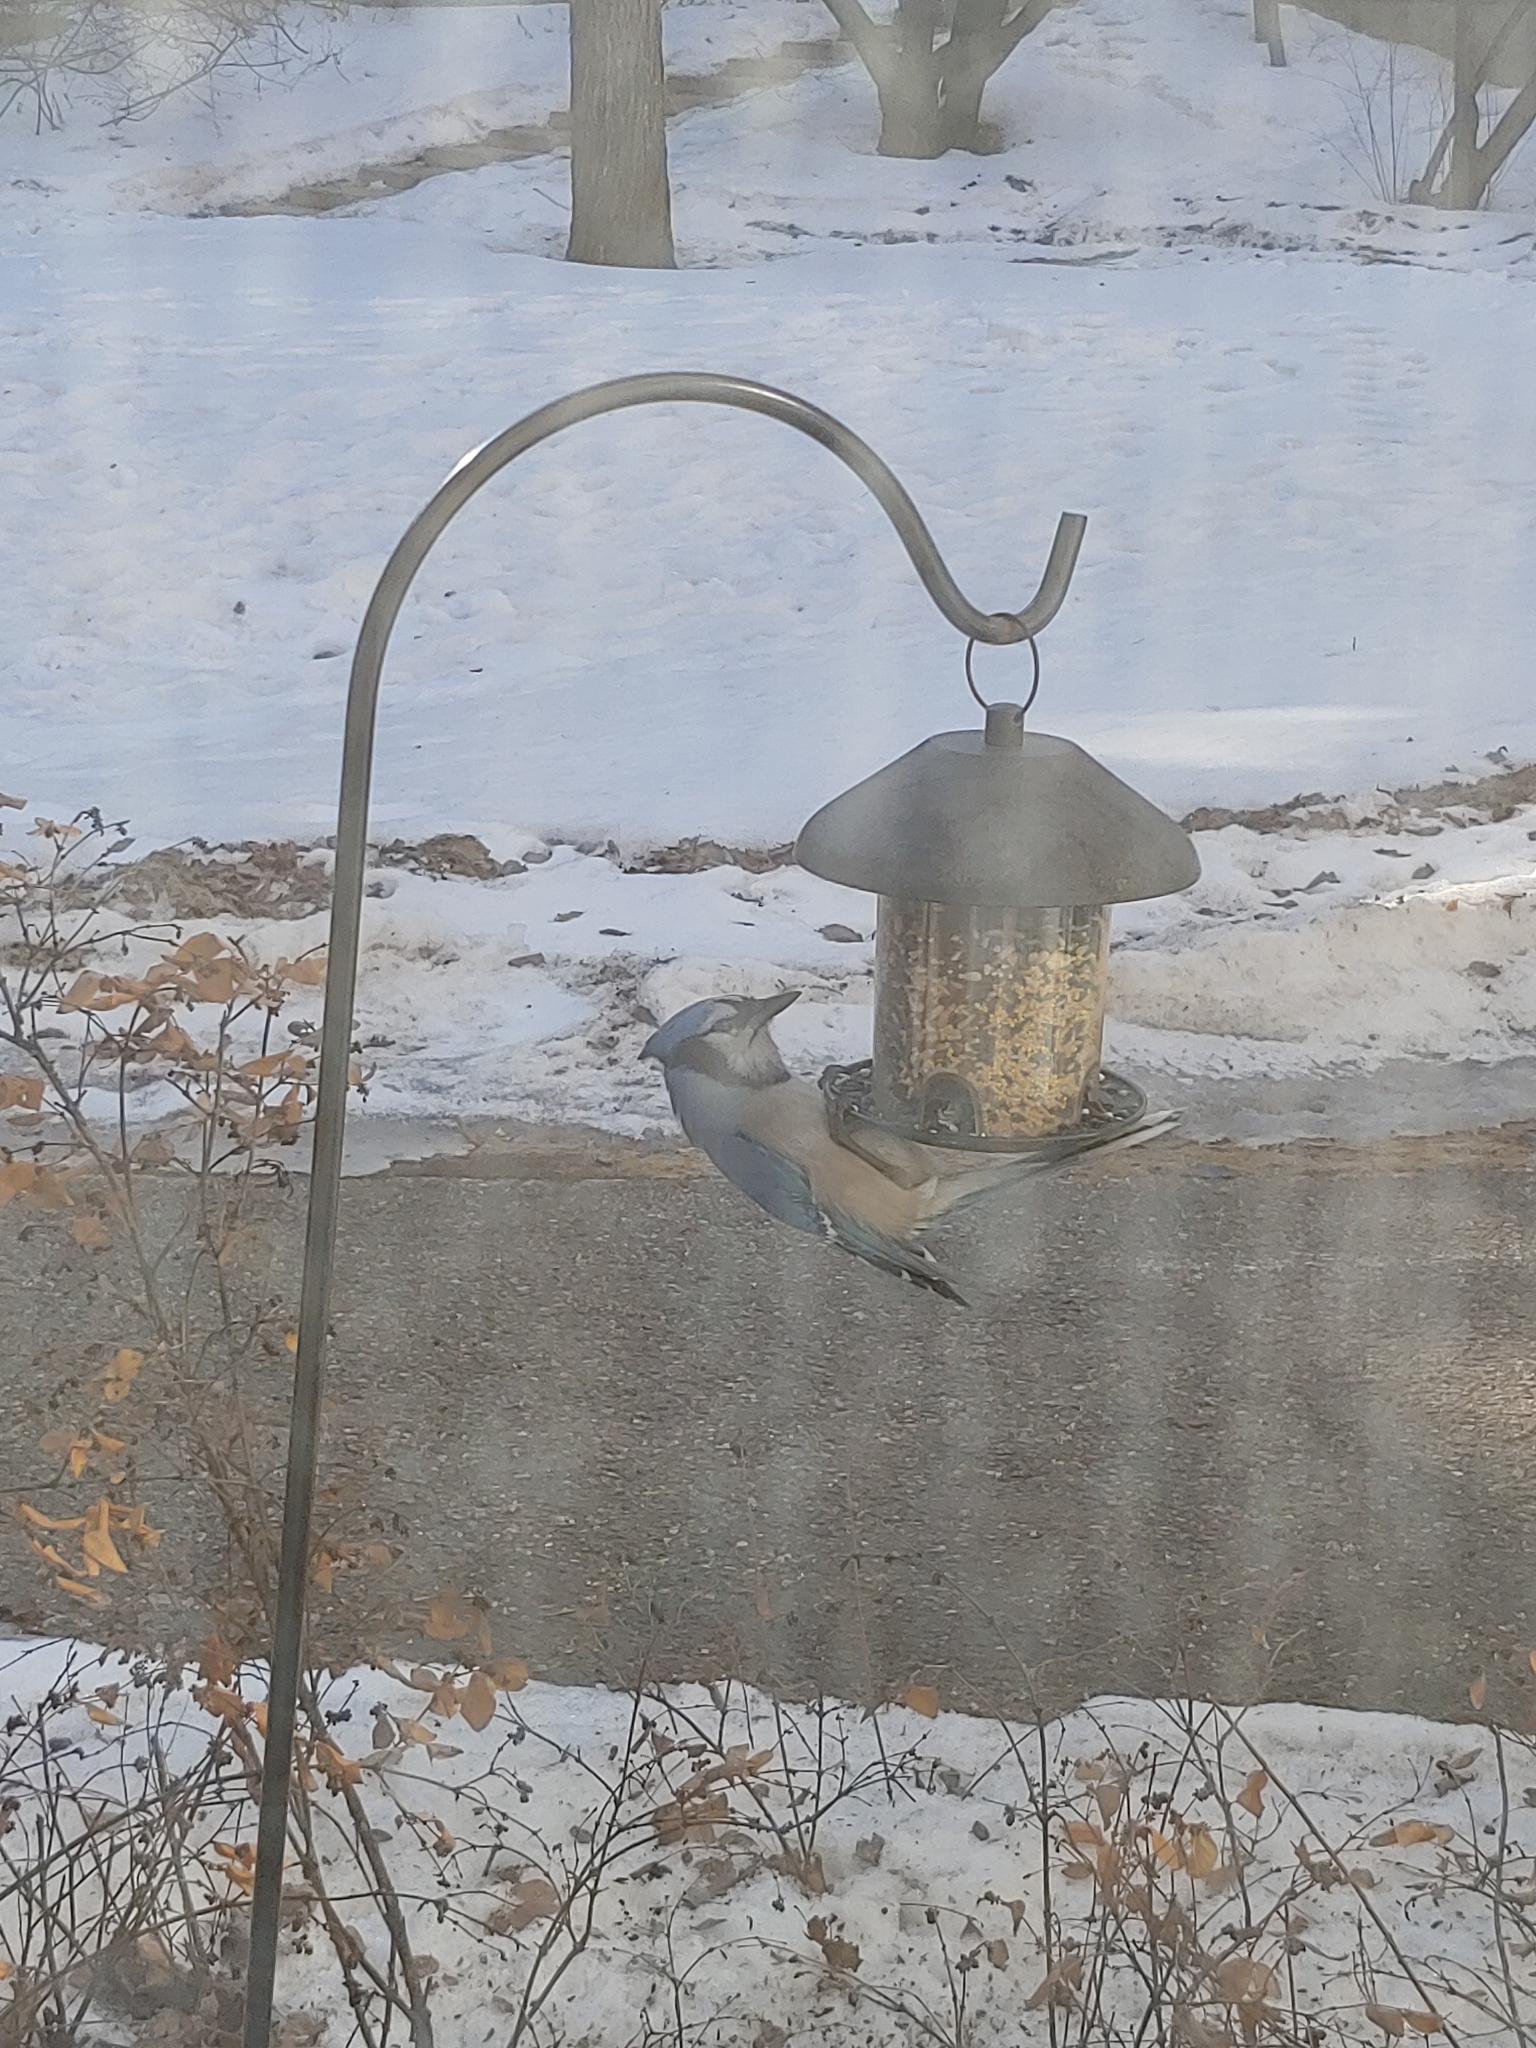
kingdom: Animalia
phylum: Chordata
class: Aves
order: Passeriformes
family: Corvidae
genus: Cyanocitta
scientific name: Cyanocitta cristata
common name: Blue jay
